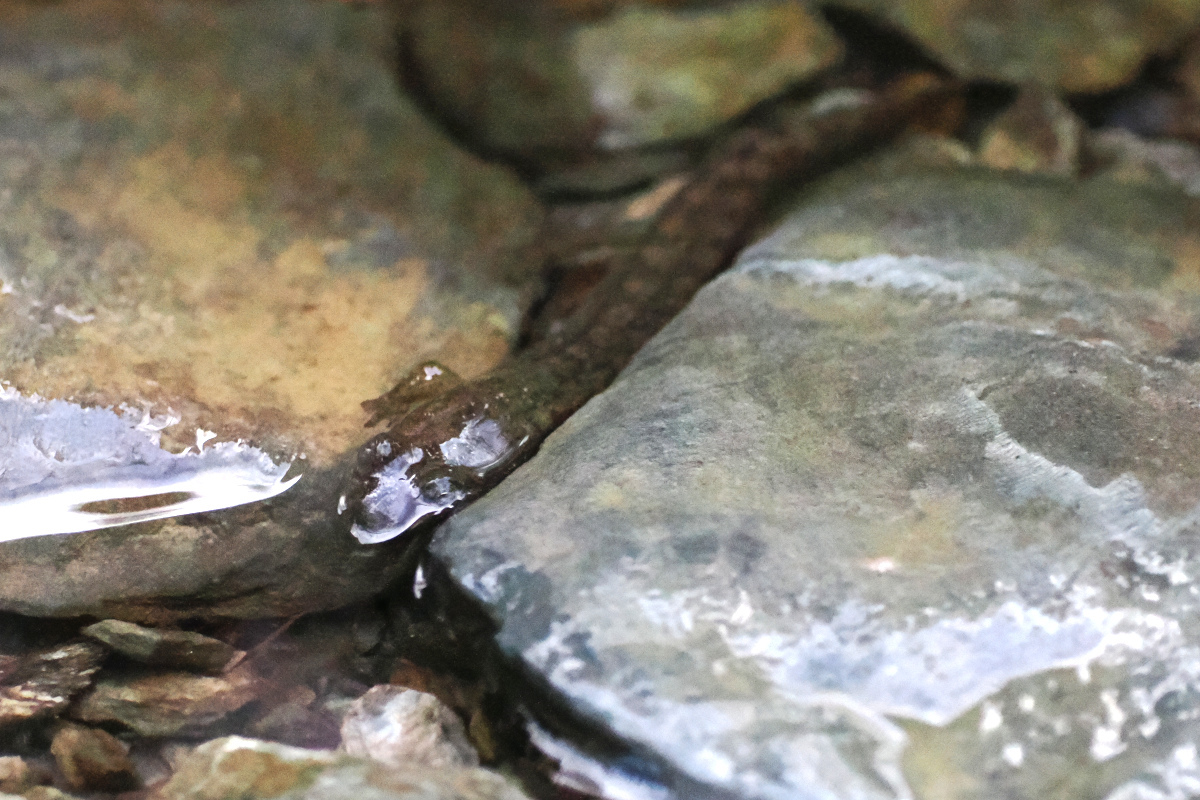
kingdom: Animalia
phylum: Chordata
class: Amphibia
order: Caudata
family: Plethodontidae
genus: Desmognathus
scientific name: Desmognathus
